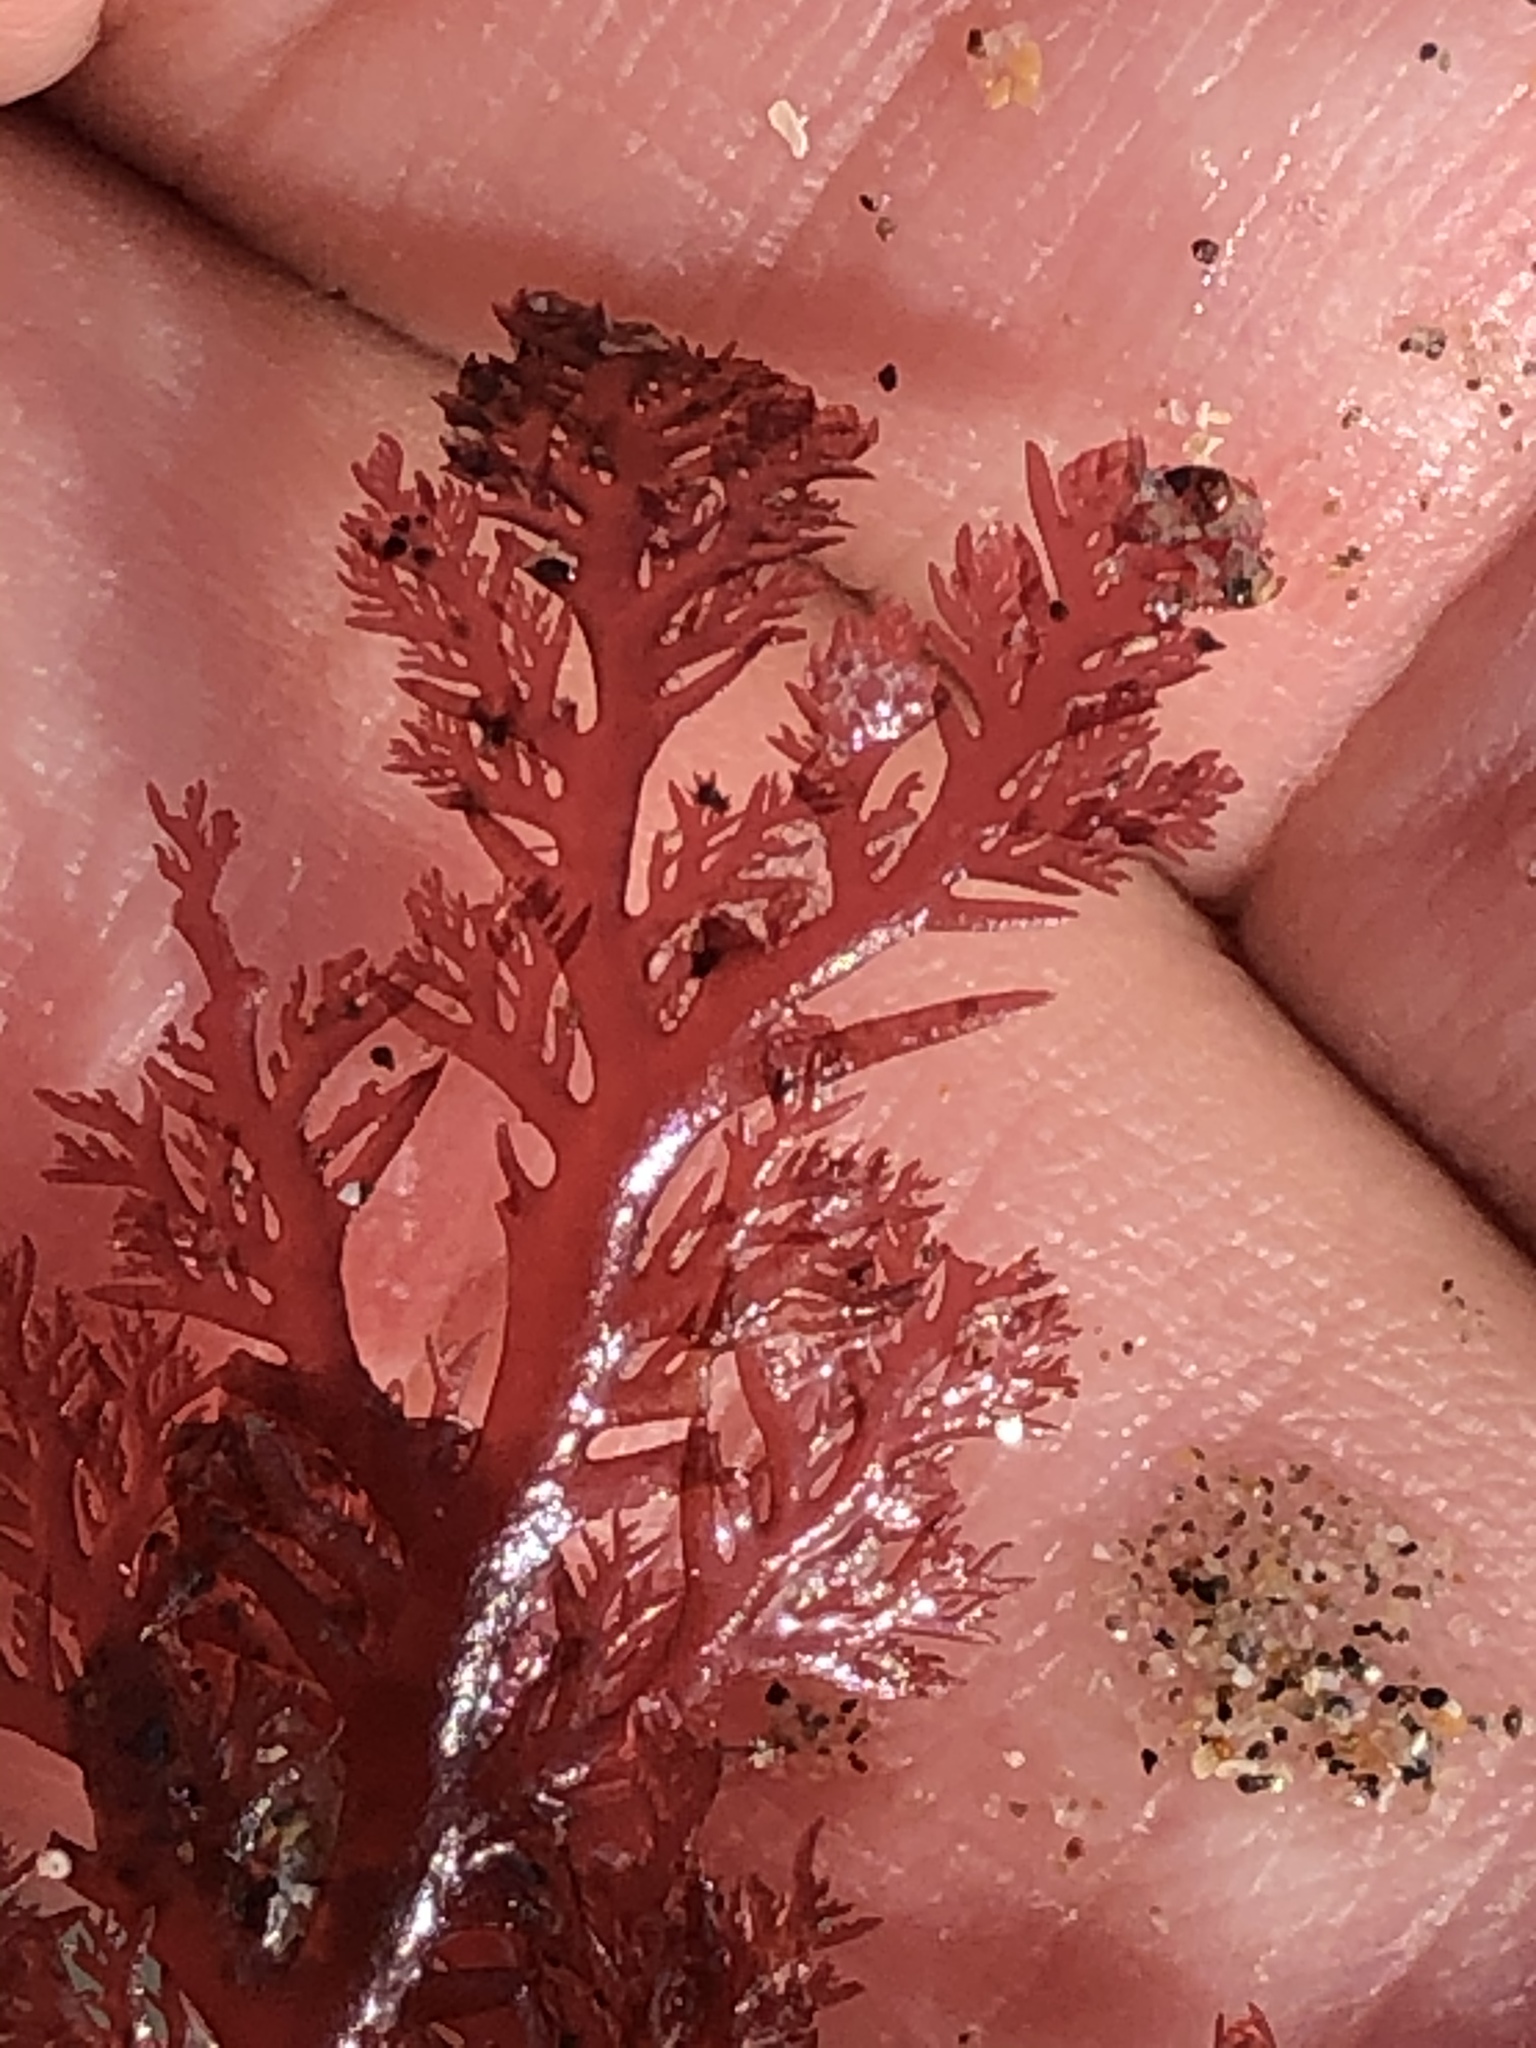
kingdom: Plantae
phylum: Rhodophyta
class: Florideophyceae
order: Plocamiales
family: Plocamiaceae
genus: Plocamium
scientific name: Plocamium cartilagineum
